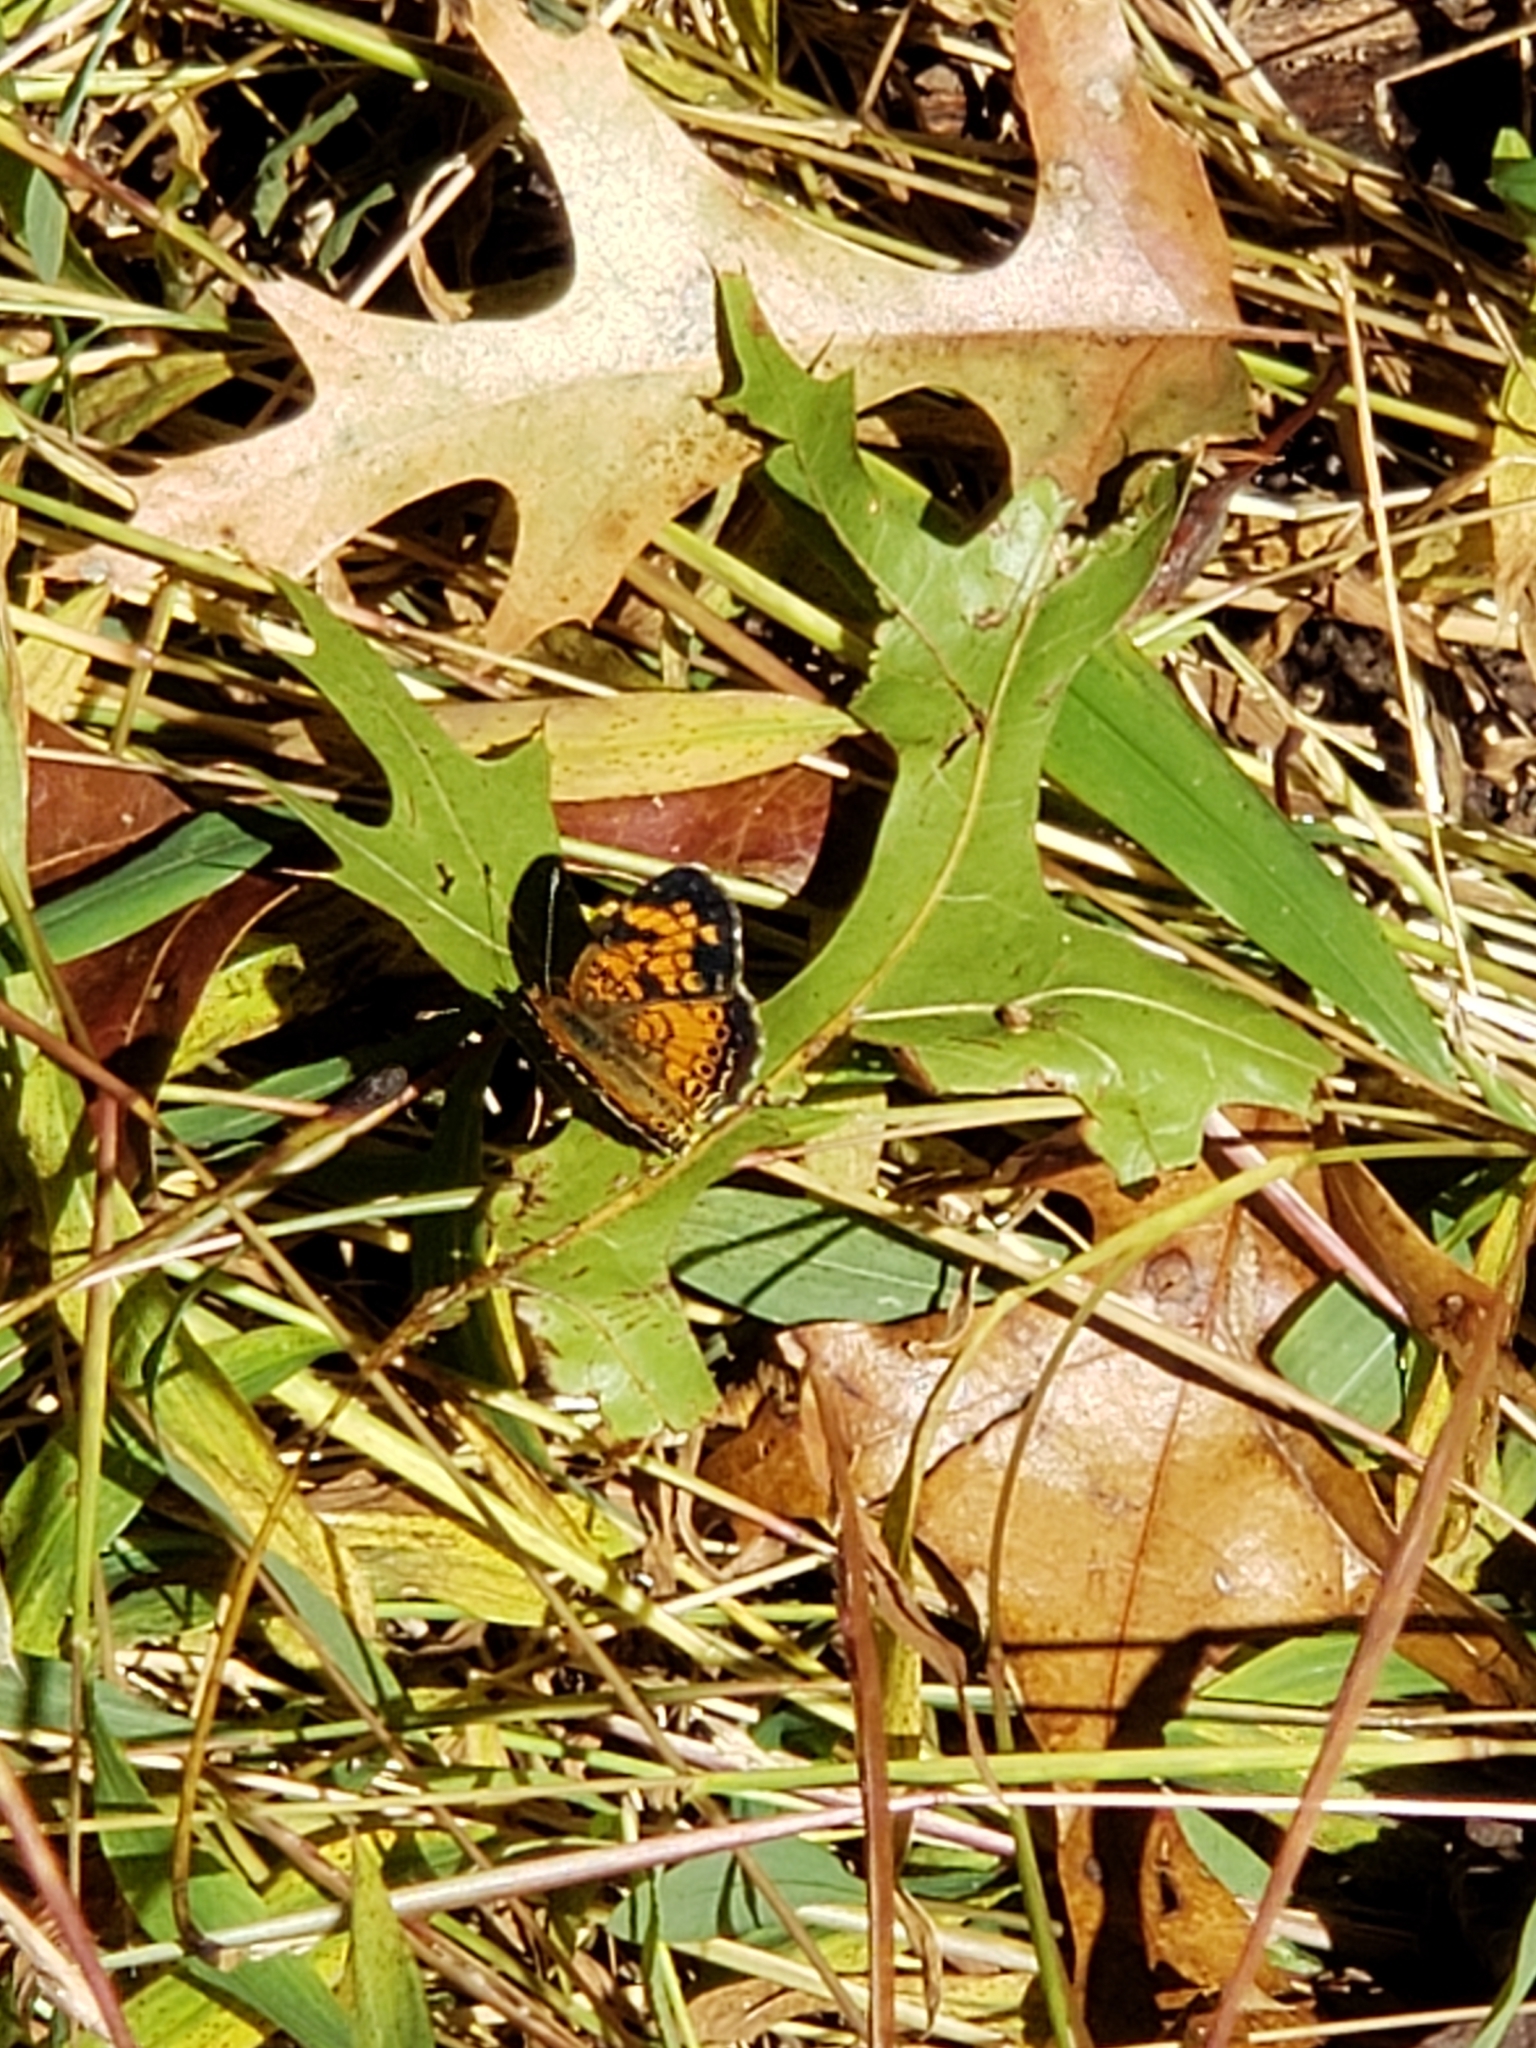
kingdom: Animalia
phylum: Arthropoda
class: Insecta
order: Lepidoptera
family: Nymphalidae
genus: Phyciodes
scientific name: Phyciodes tharos
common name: Pearl crescent
